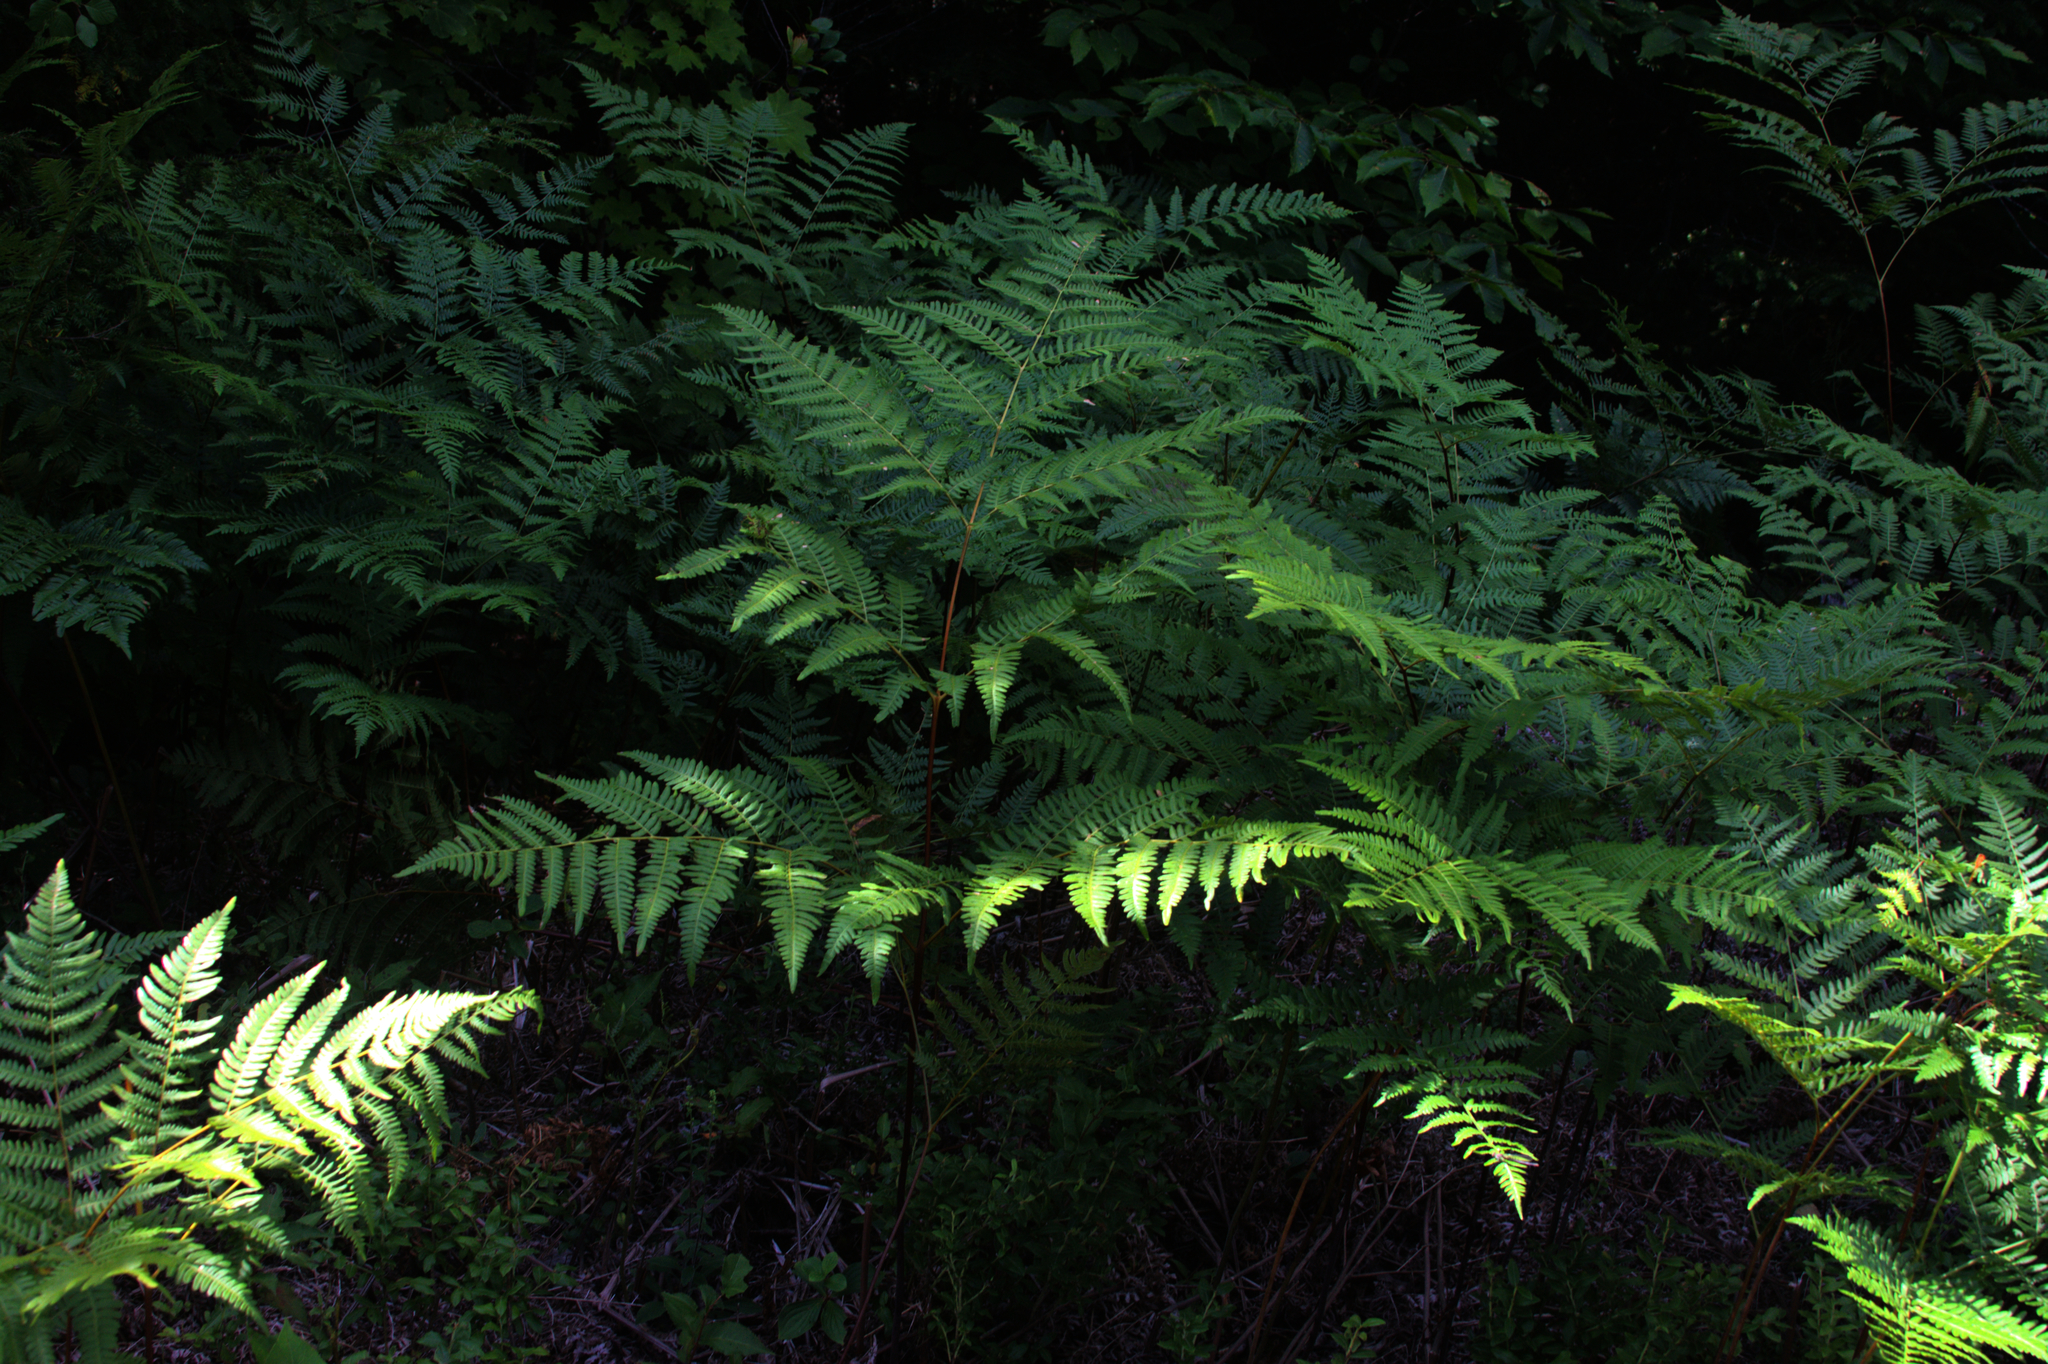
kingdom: Plantae
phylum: Tracheophyta
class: Polypodiopsida
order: Polypodiales
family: Dennstaedtiaceae
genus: Pteridium
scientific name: Pteridium aquilinum
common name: Bracken
